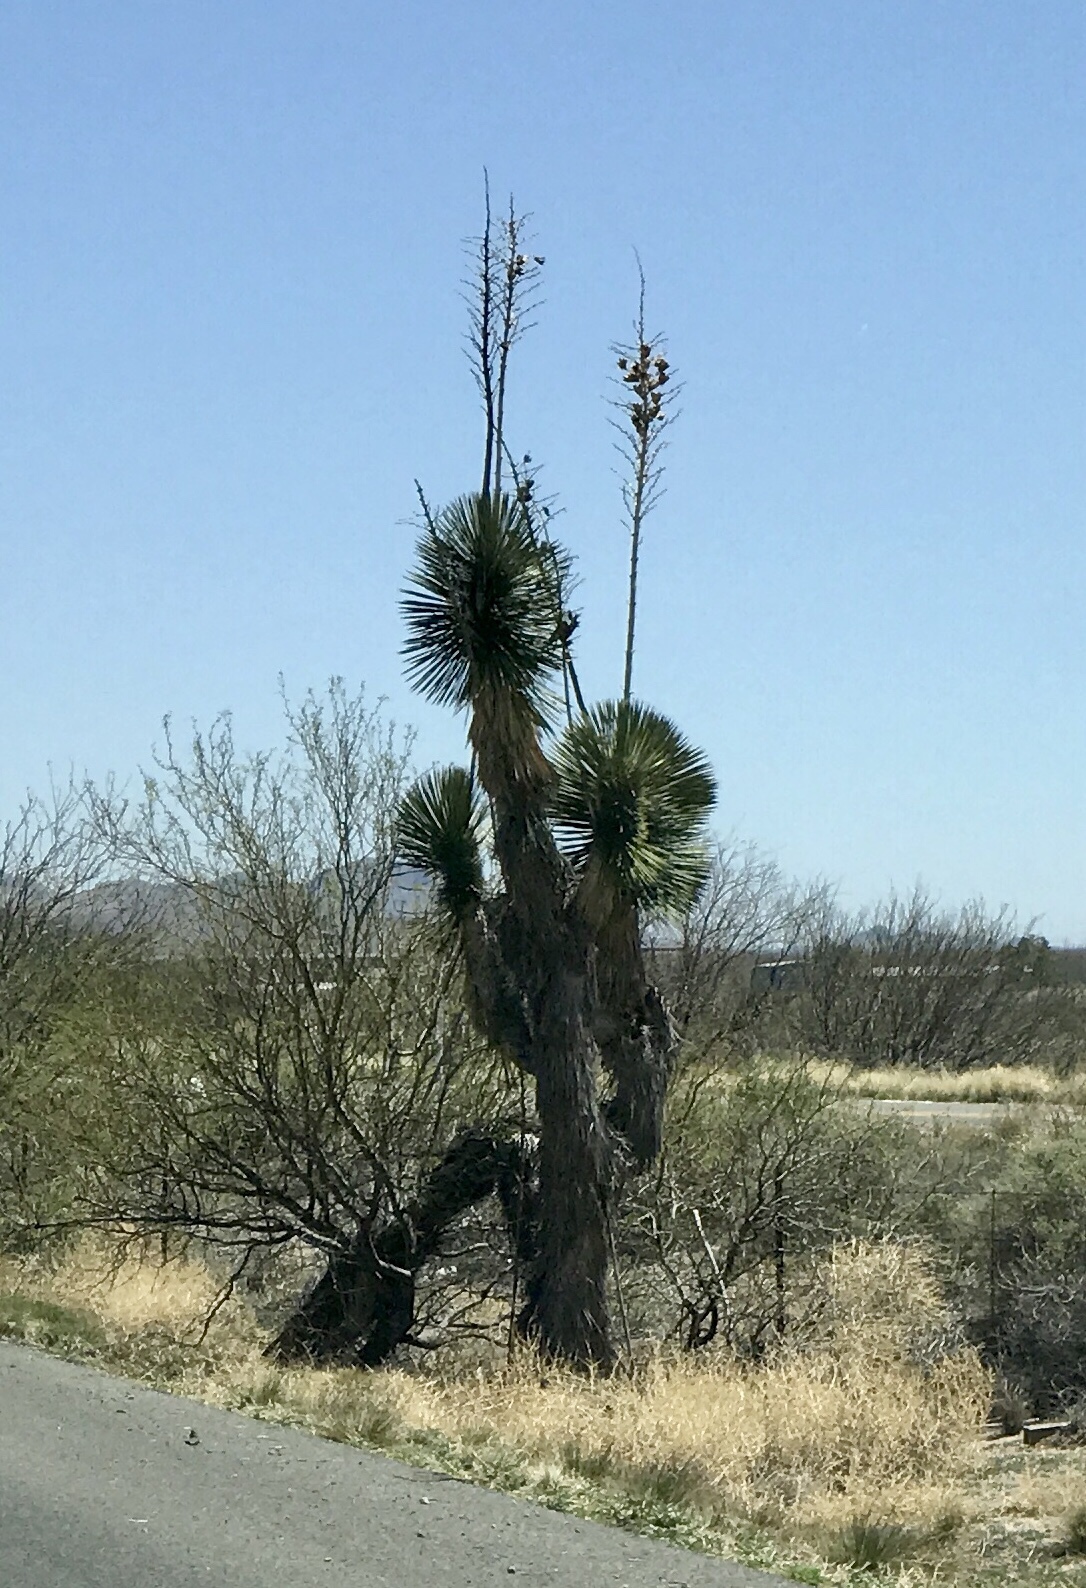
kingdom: Plantae
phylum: Tracheophyta
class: Liliopsida
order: Asparagales
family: Asparagaceae
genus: Yucca
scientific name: Yucca elata
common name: Palmella
